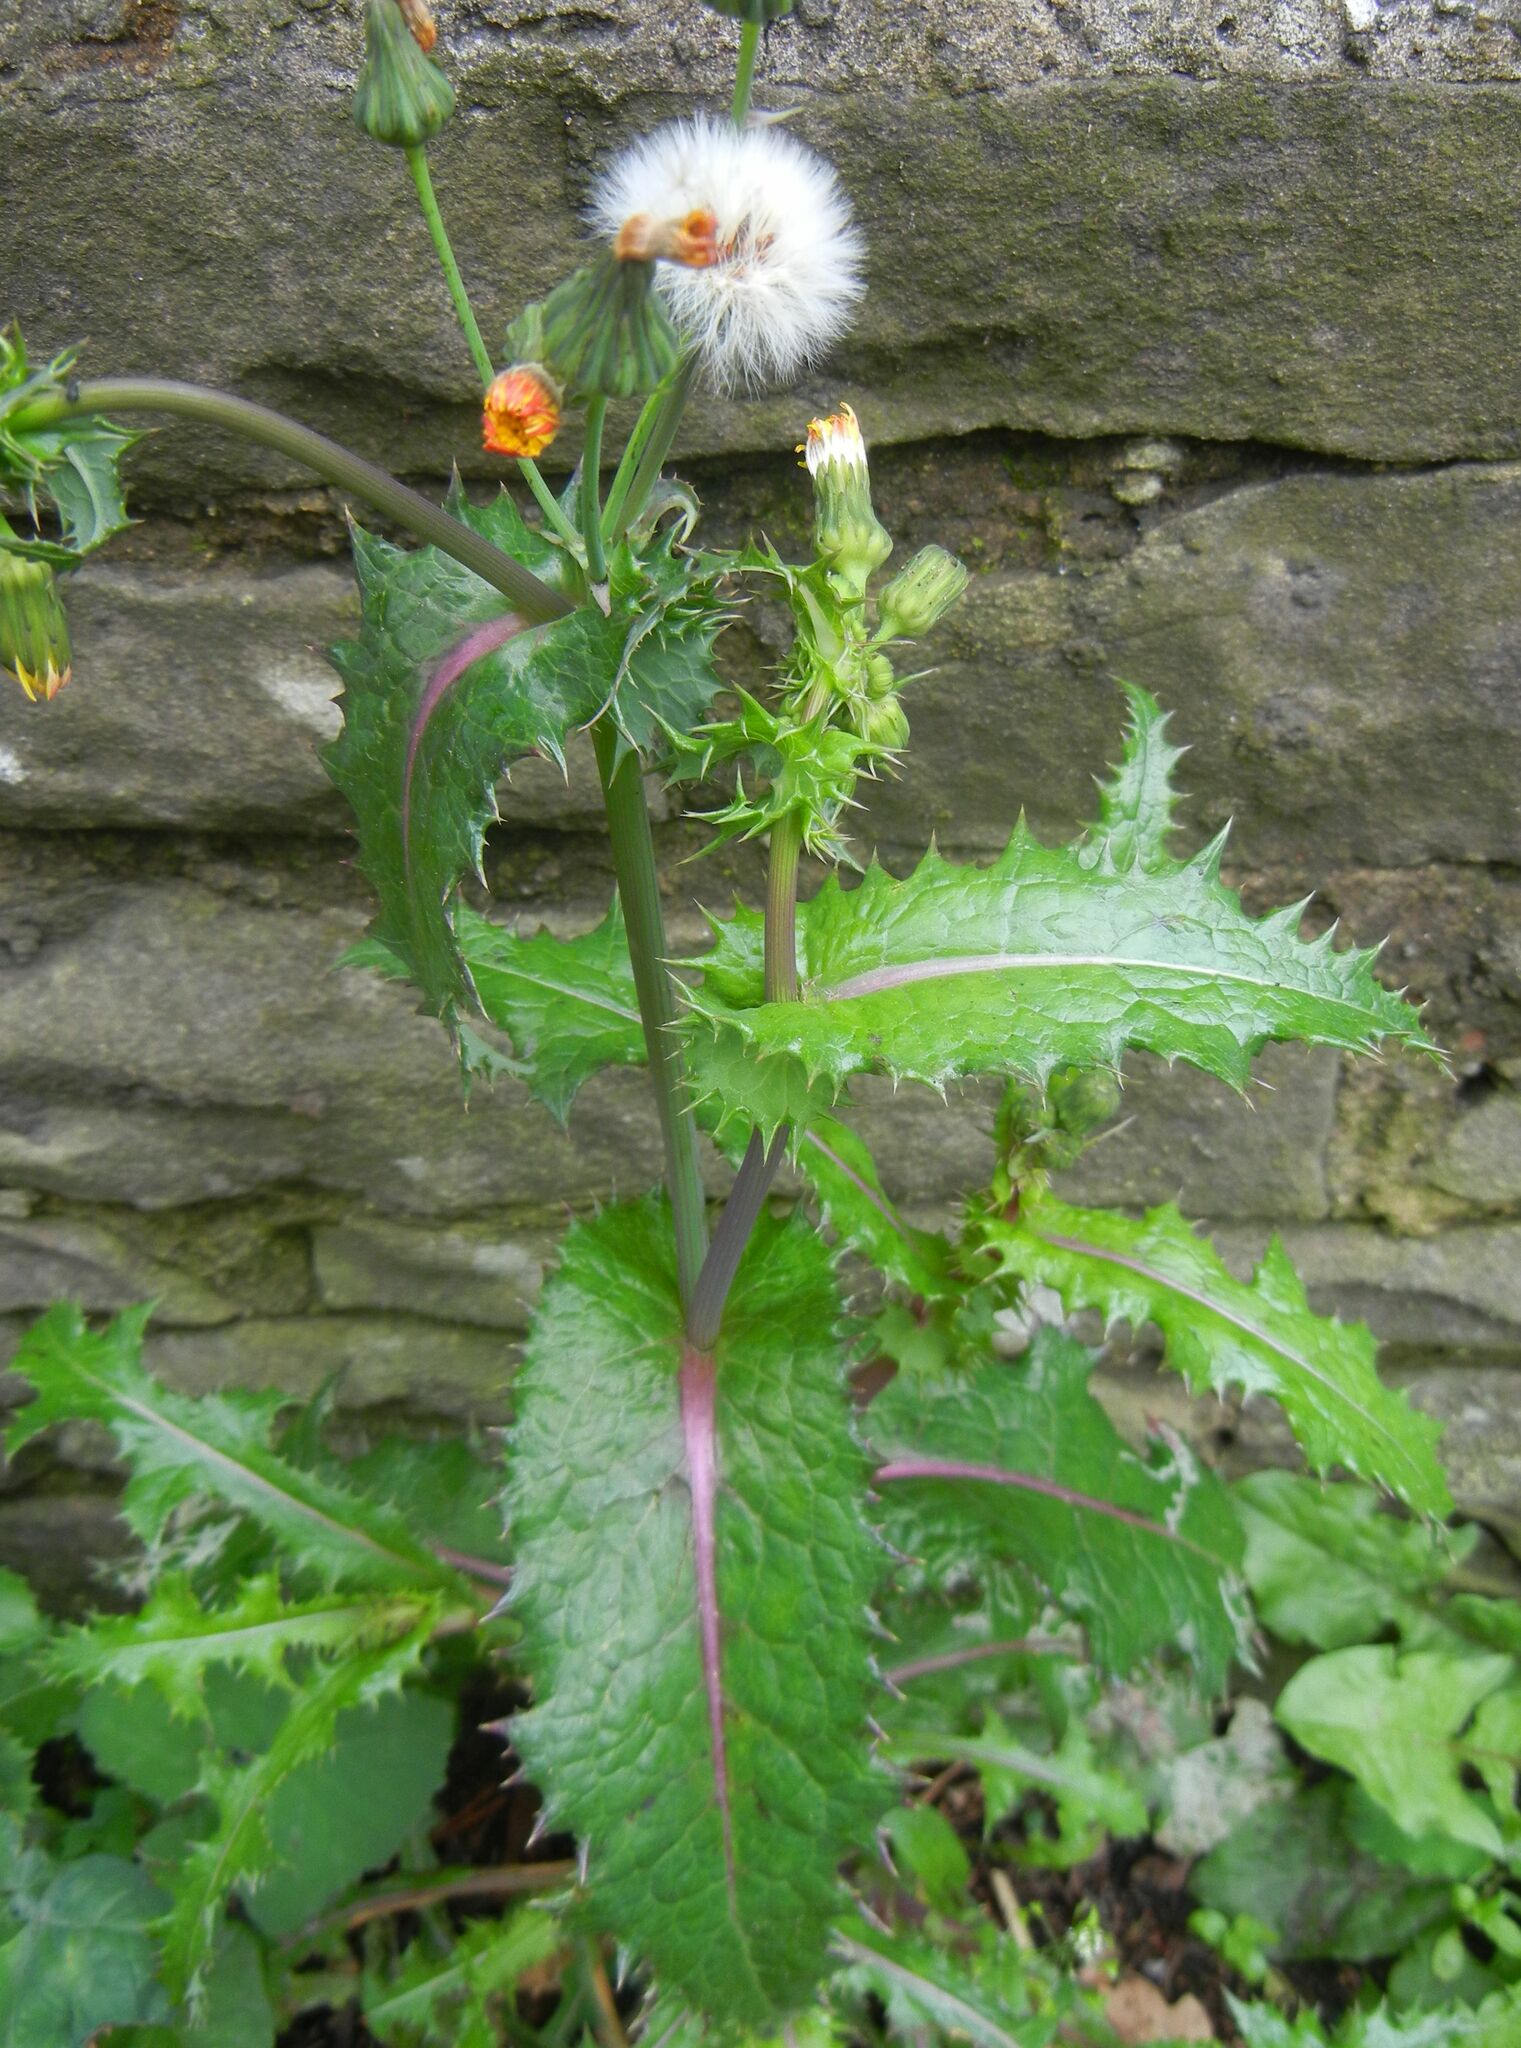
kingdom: Plantae
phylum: Tracheophyta
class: Magnoliopsida
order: Asterales
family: Asteraceae
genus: Sonchus
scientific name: Sonchus asper
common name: Prickly sow-thistle
